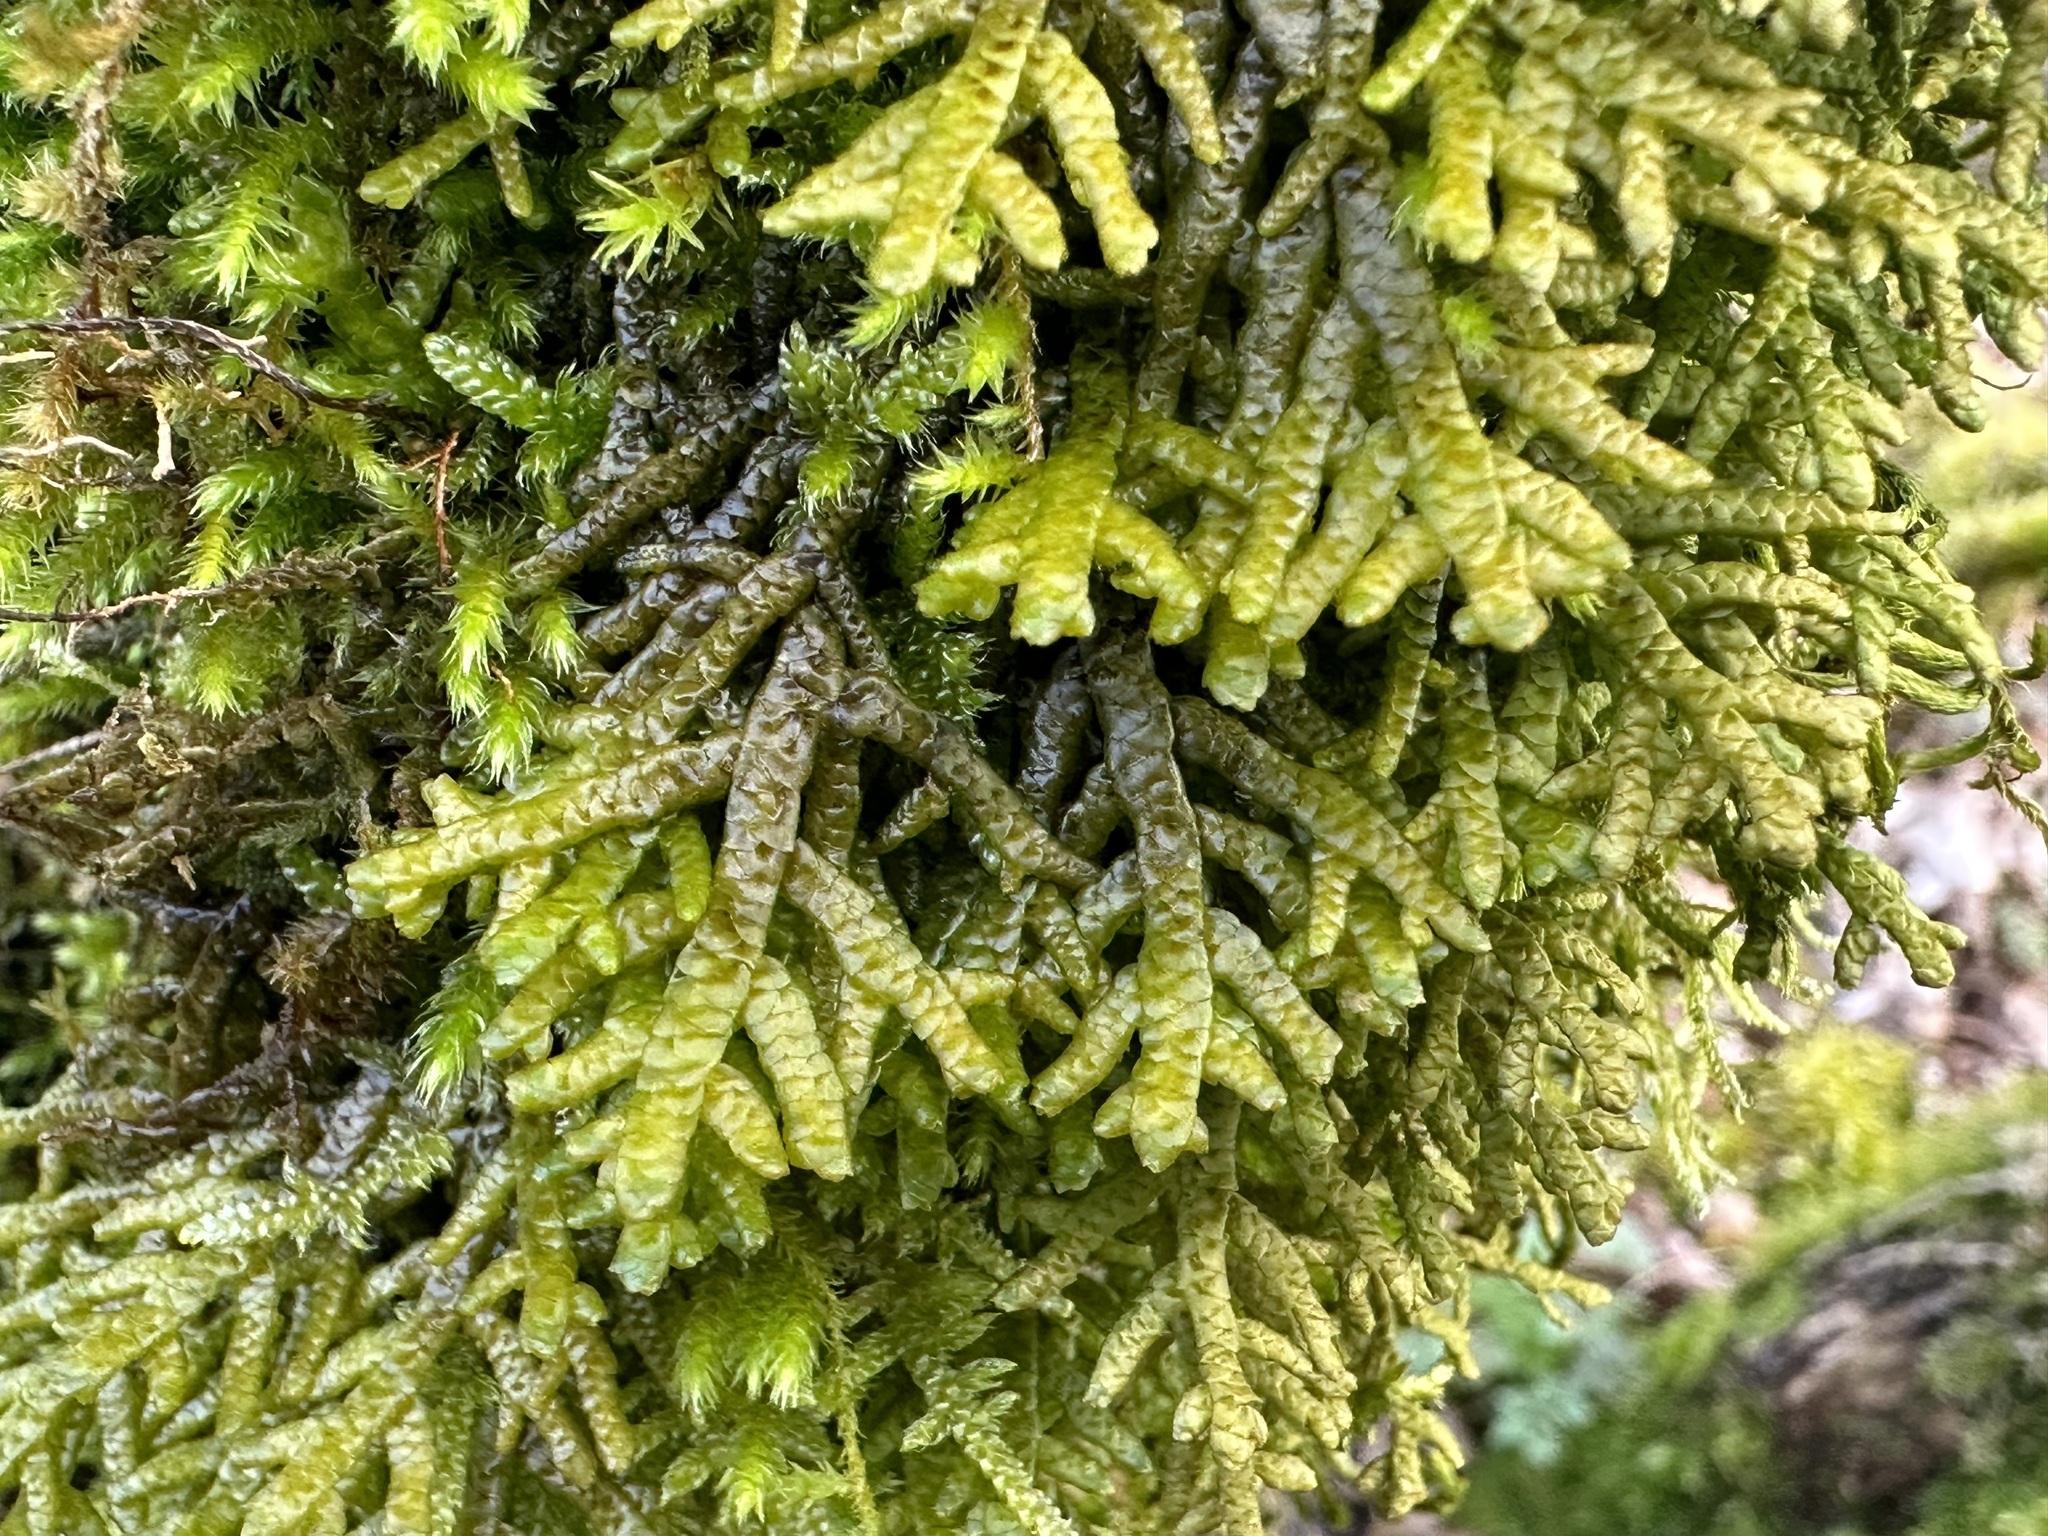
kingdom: Plantae
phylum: Marchantiophyta
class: Jungermanniopsida
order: Porellales
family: Porellaceae
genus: Porella
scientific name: Porella platyphylla
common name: Wall scalewort
